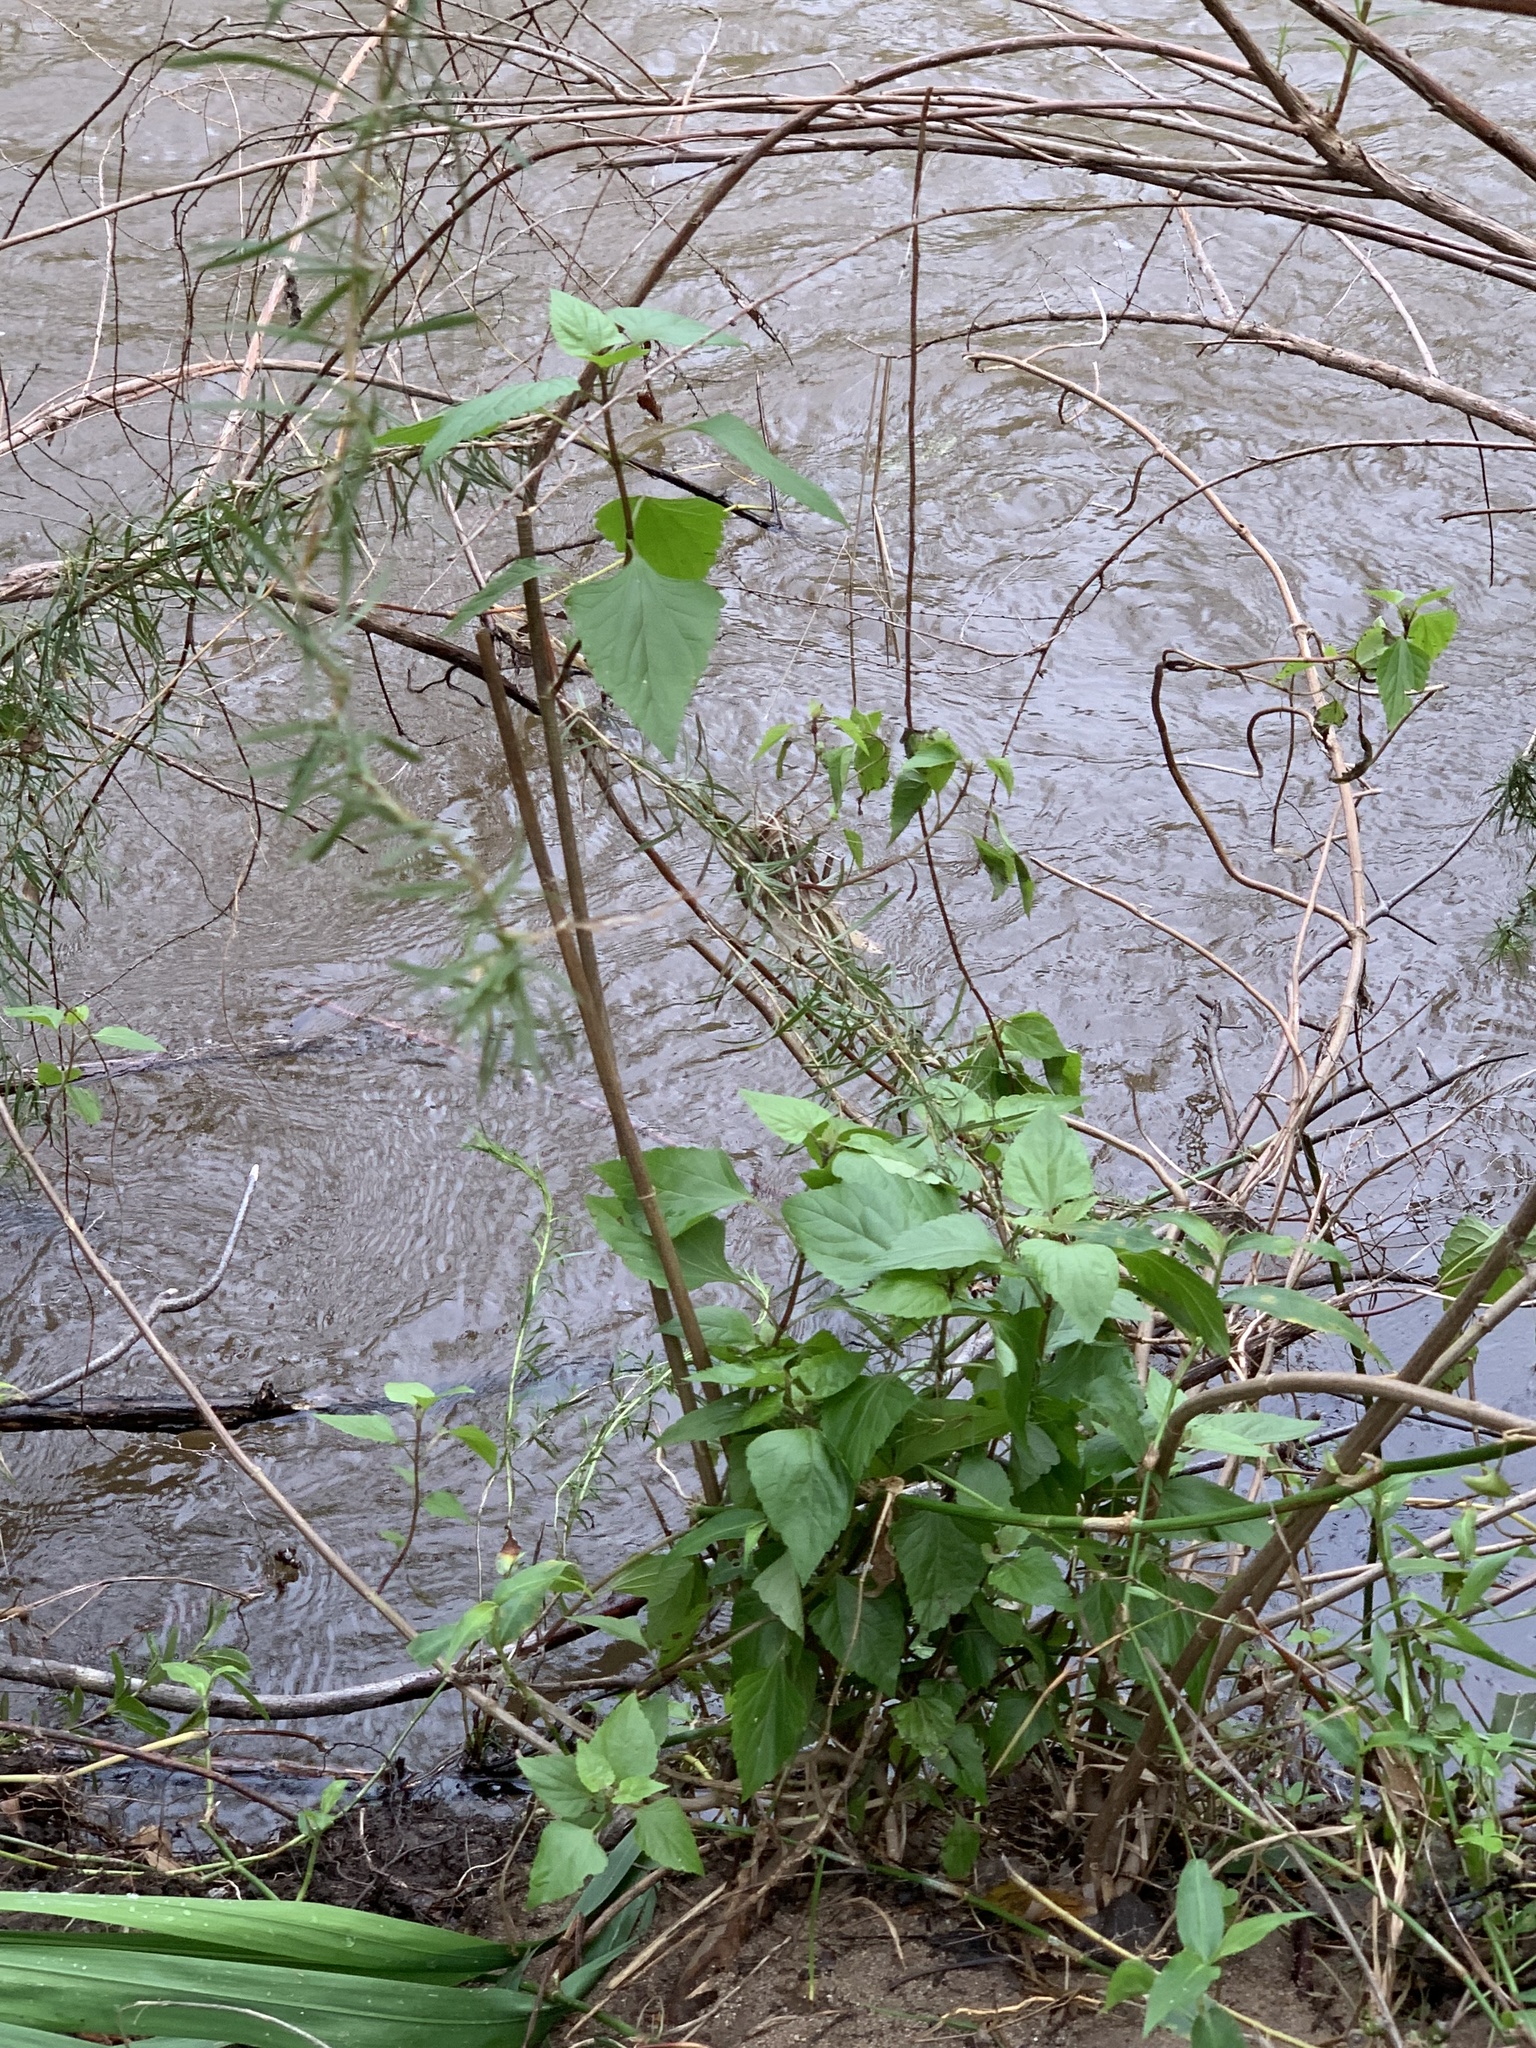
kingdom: Plantae
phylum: Tracheophyta
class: Magnoliopsida
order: Asterales
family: Asteraceae
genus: Ageratina
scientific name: Ageratina adenophora
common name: Sticky snakeroot
